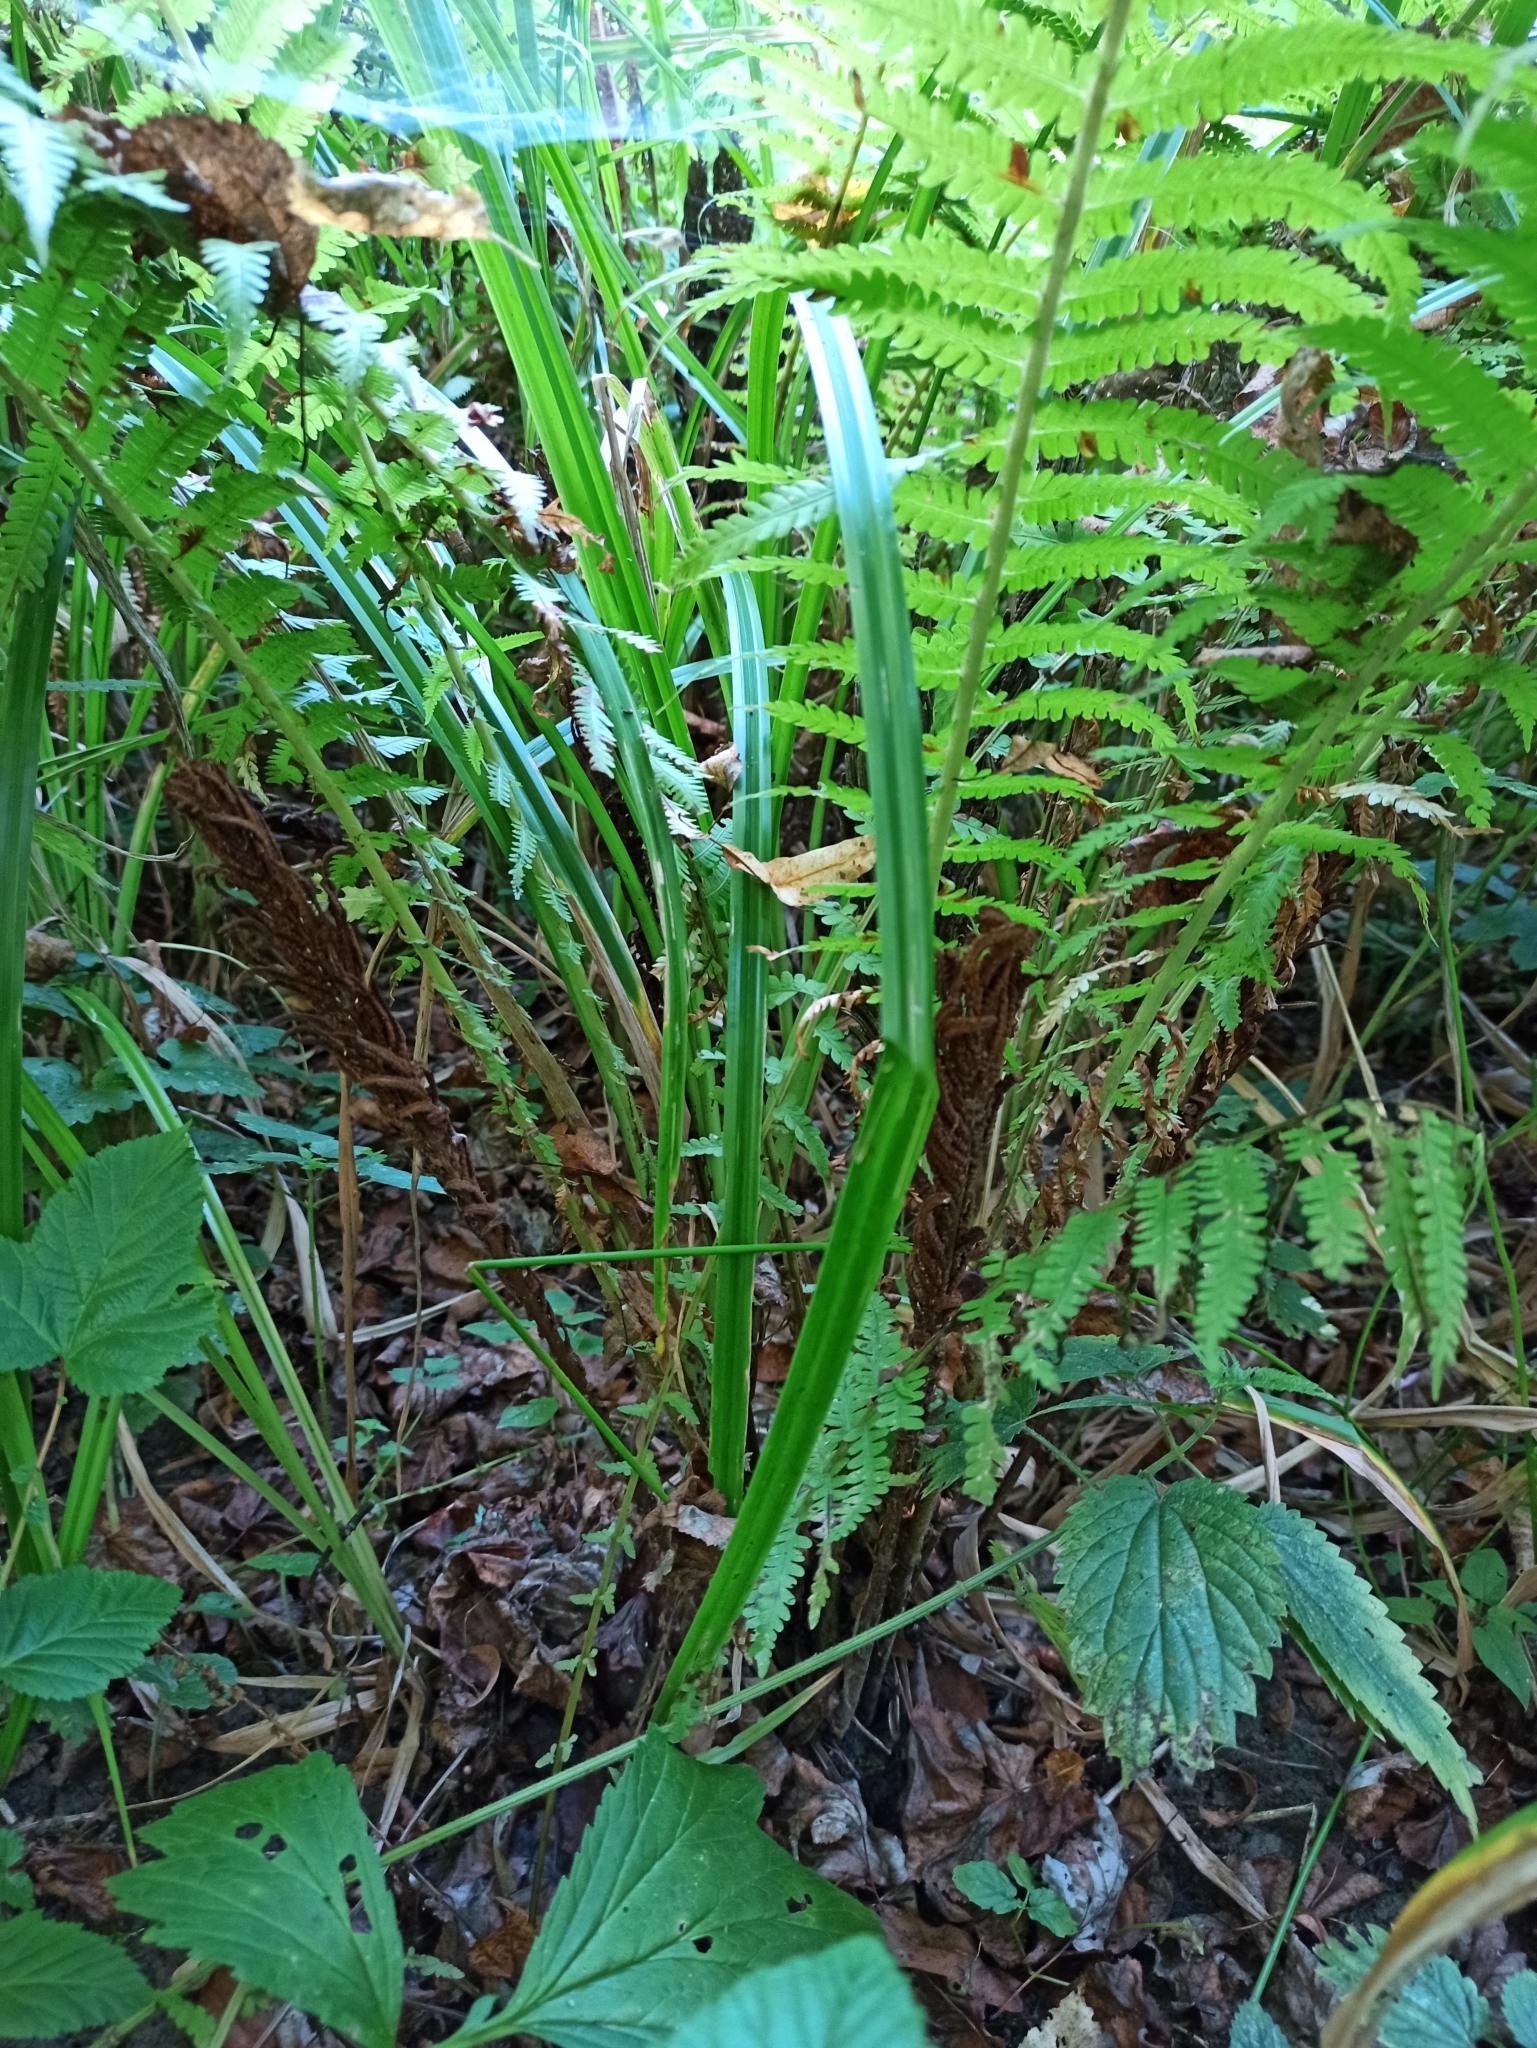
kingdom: Plantae
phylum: Tracheophyta
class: Polypodiopsida
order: Polypodiales
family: Onocleaceae
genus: Matteuccia
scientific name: Matteuccia struthiopteris
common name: Ostrich fern
